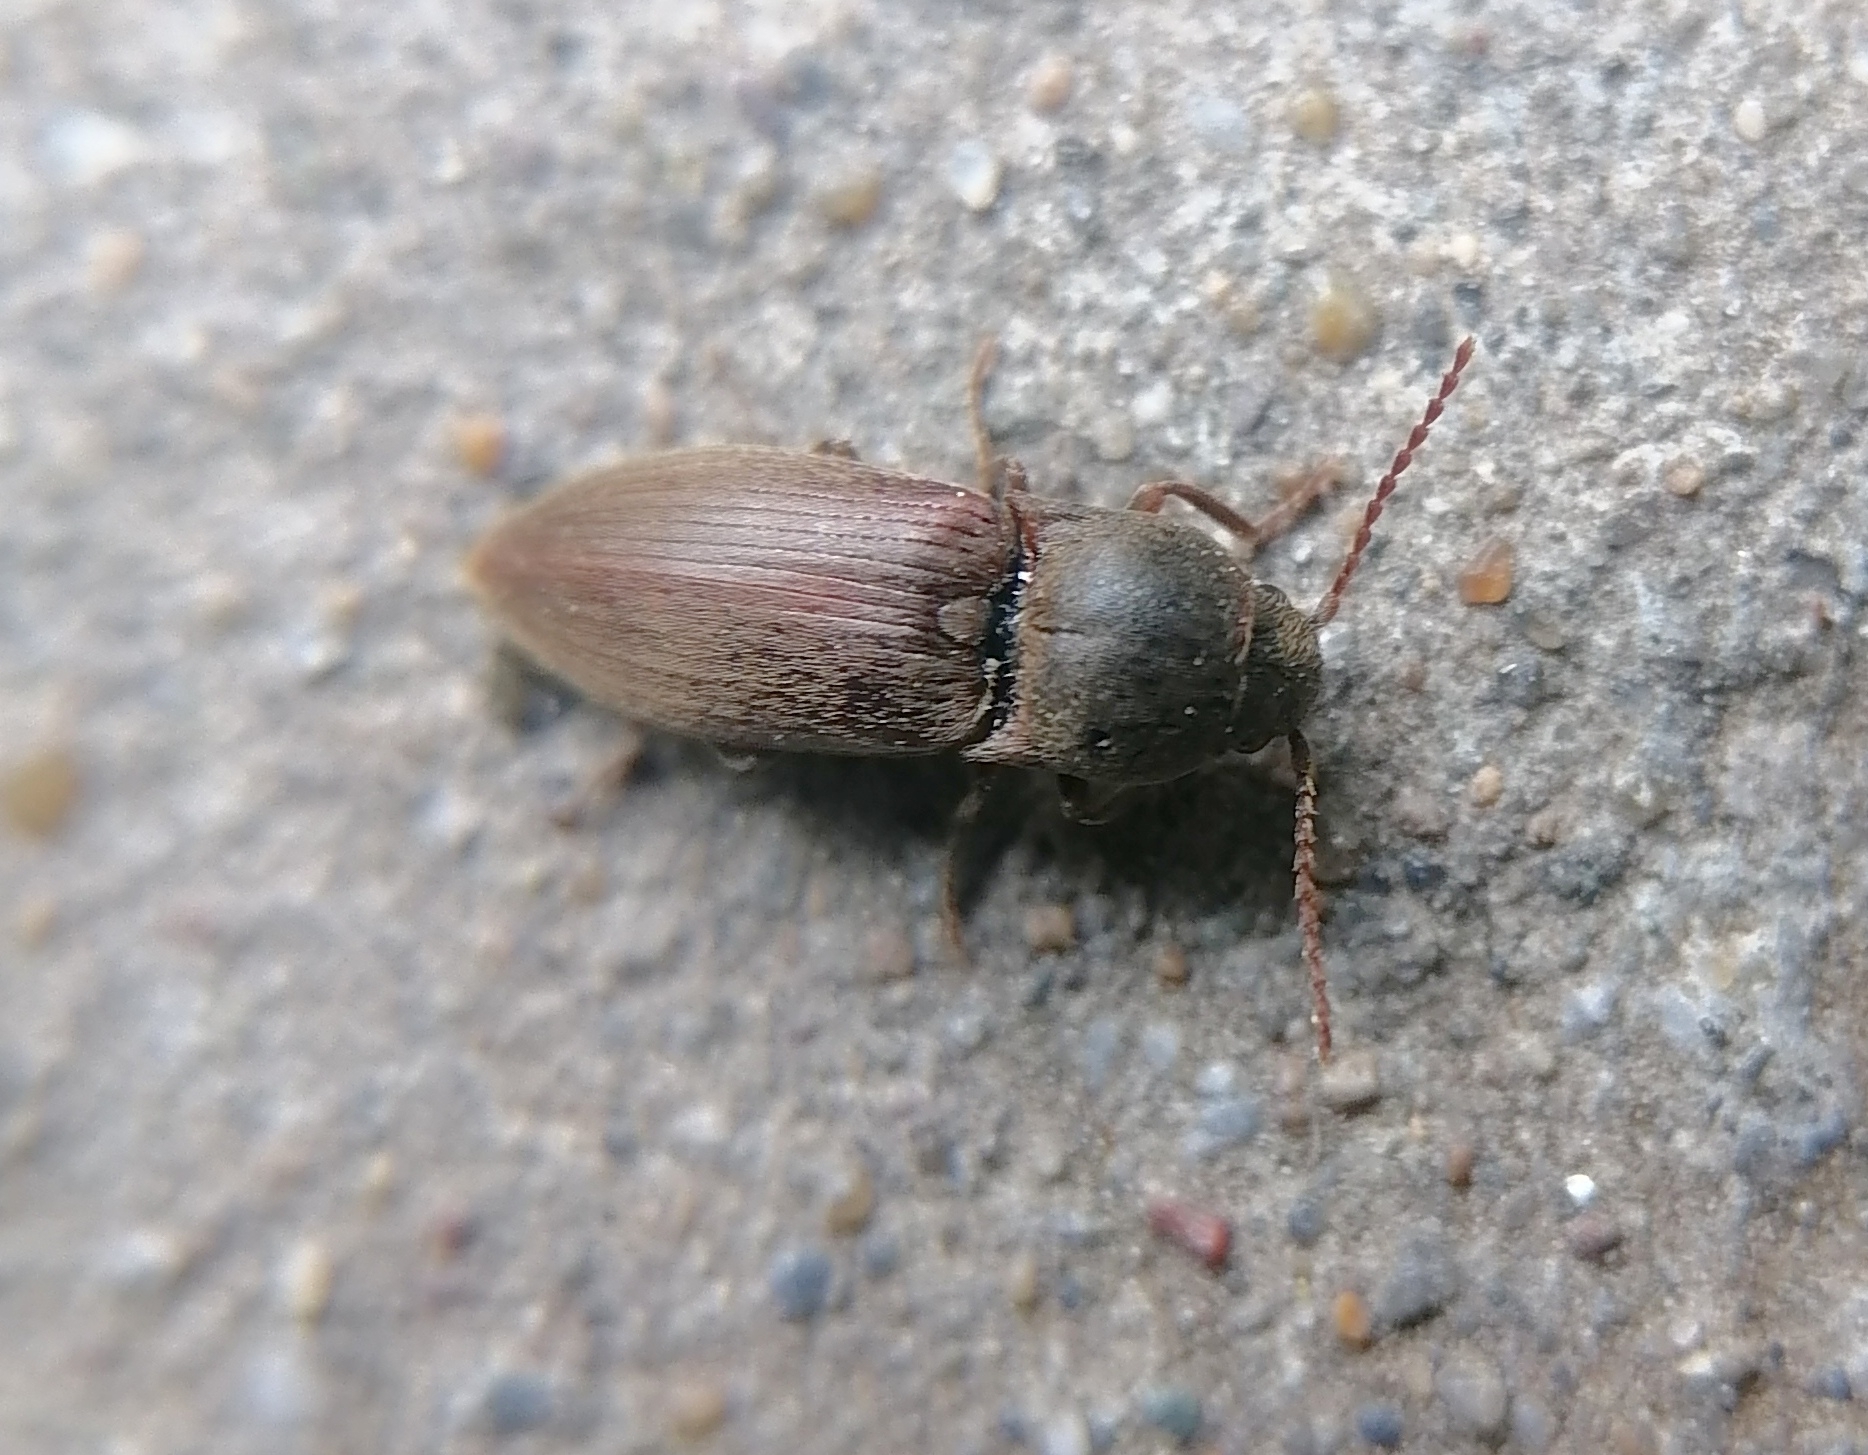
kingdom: Animalia
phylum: Arthropoda
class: Insecta
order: Coleoptera
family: Elateridae
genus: Agriotes
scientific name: Agriotes obscurus
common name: Dusky wireworm
